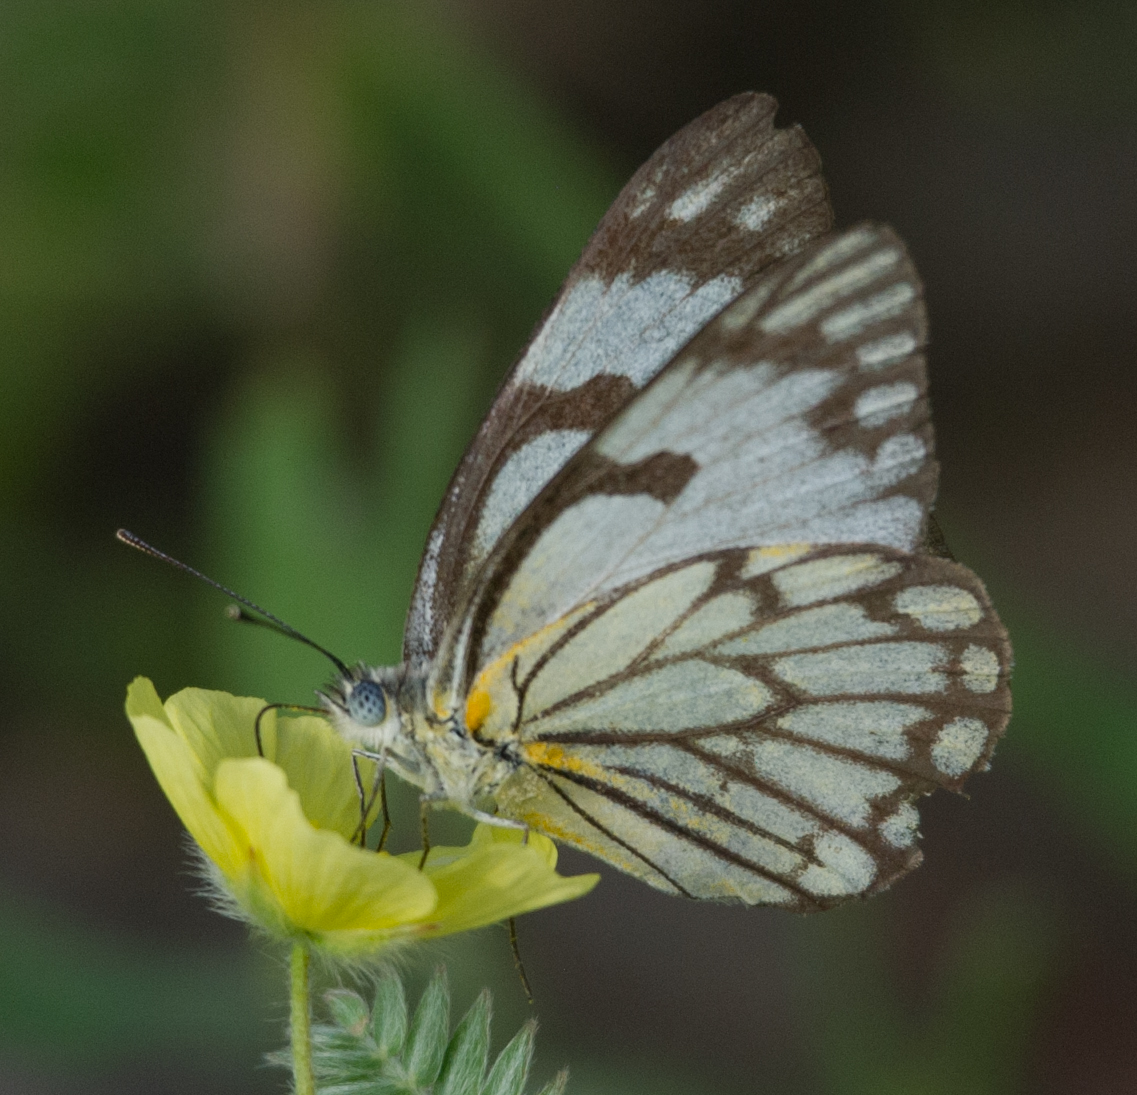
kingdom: Animalia
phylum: Arthropoda
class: Insecta
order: Lepidoptera
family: Pieridae
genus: Belenois
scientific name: Belenois aurota
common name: Brown-veined white
